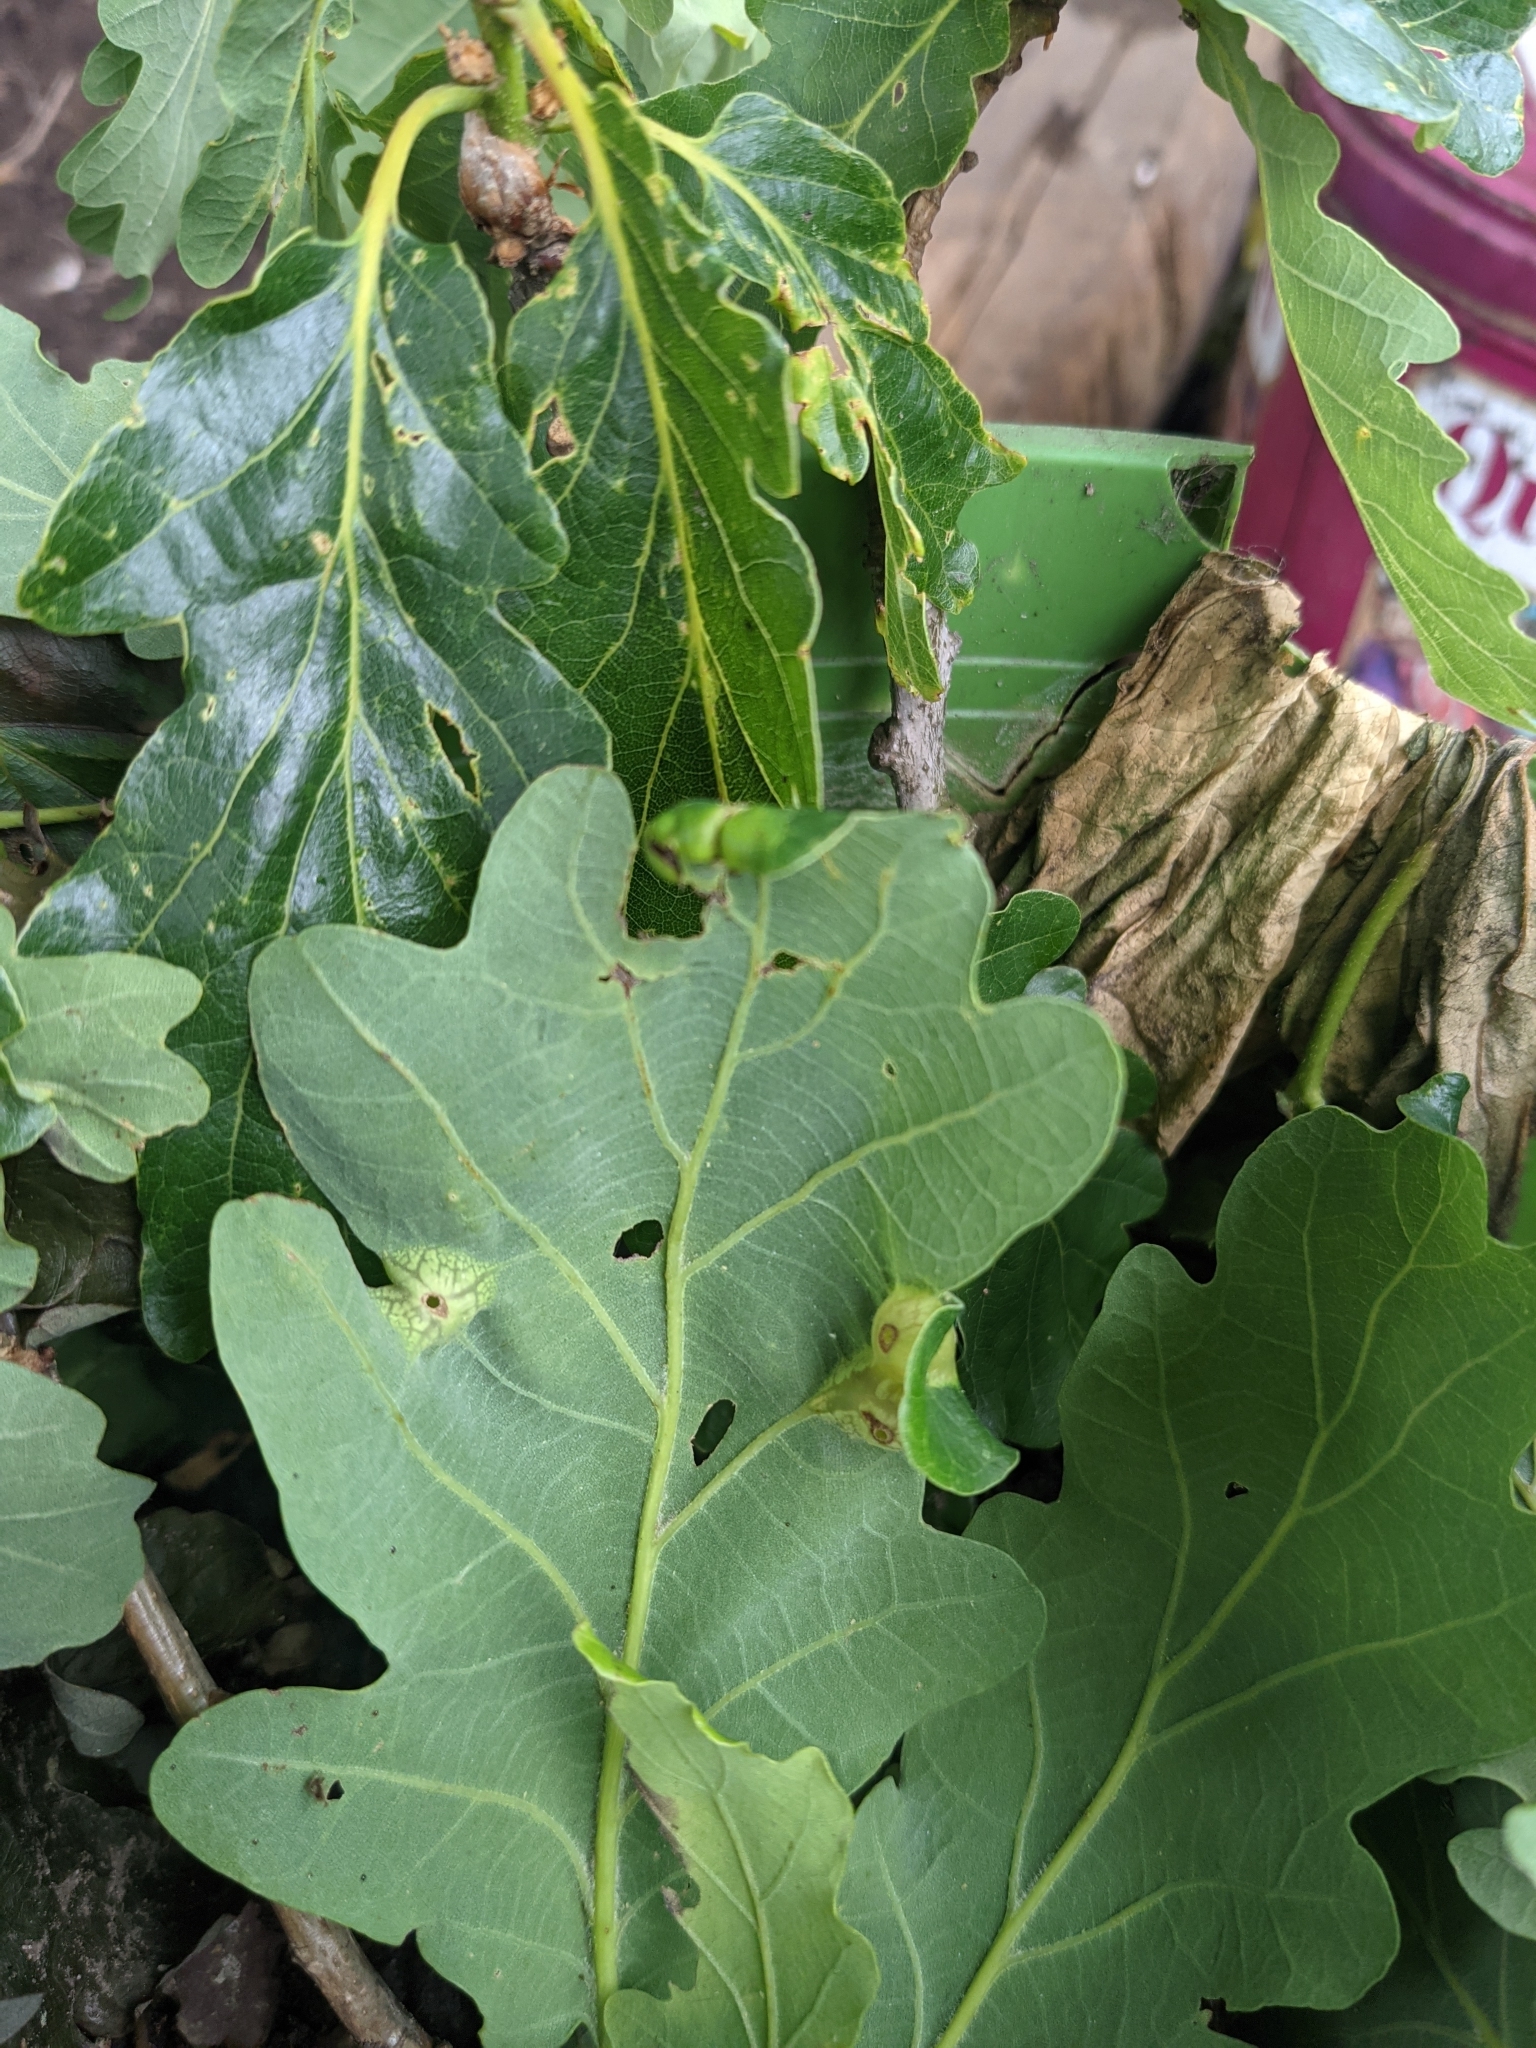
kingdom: Animalia
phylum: Arthropoda
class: Insecta
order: Hymenoptera
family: Cynipidae
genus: Andricus
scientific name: Andricus curvator
